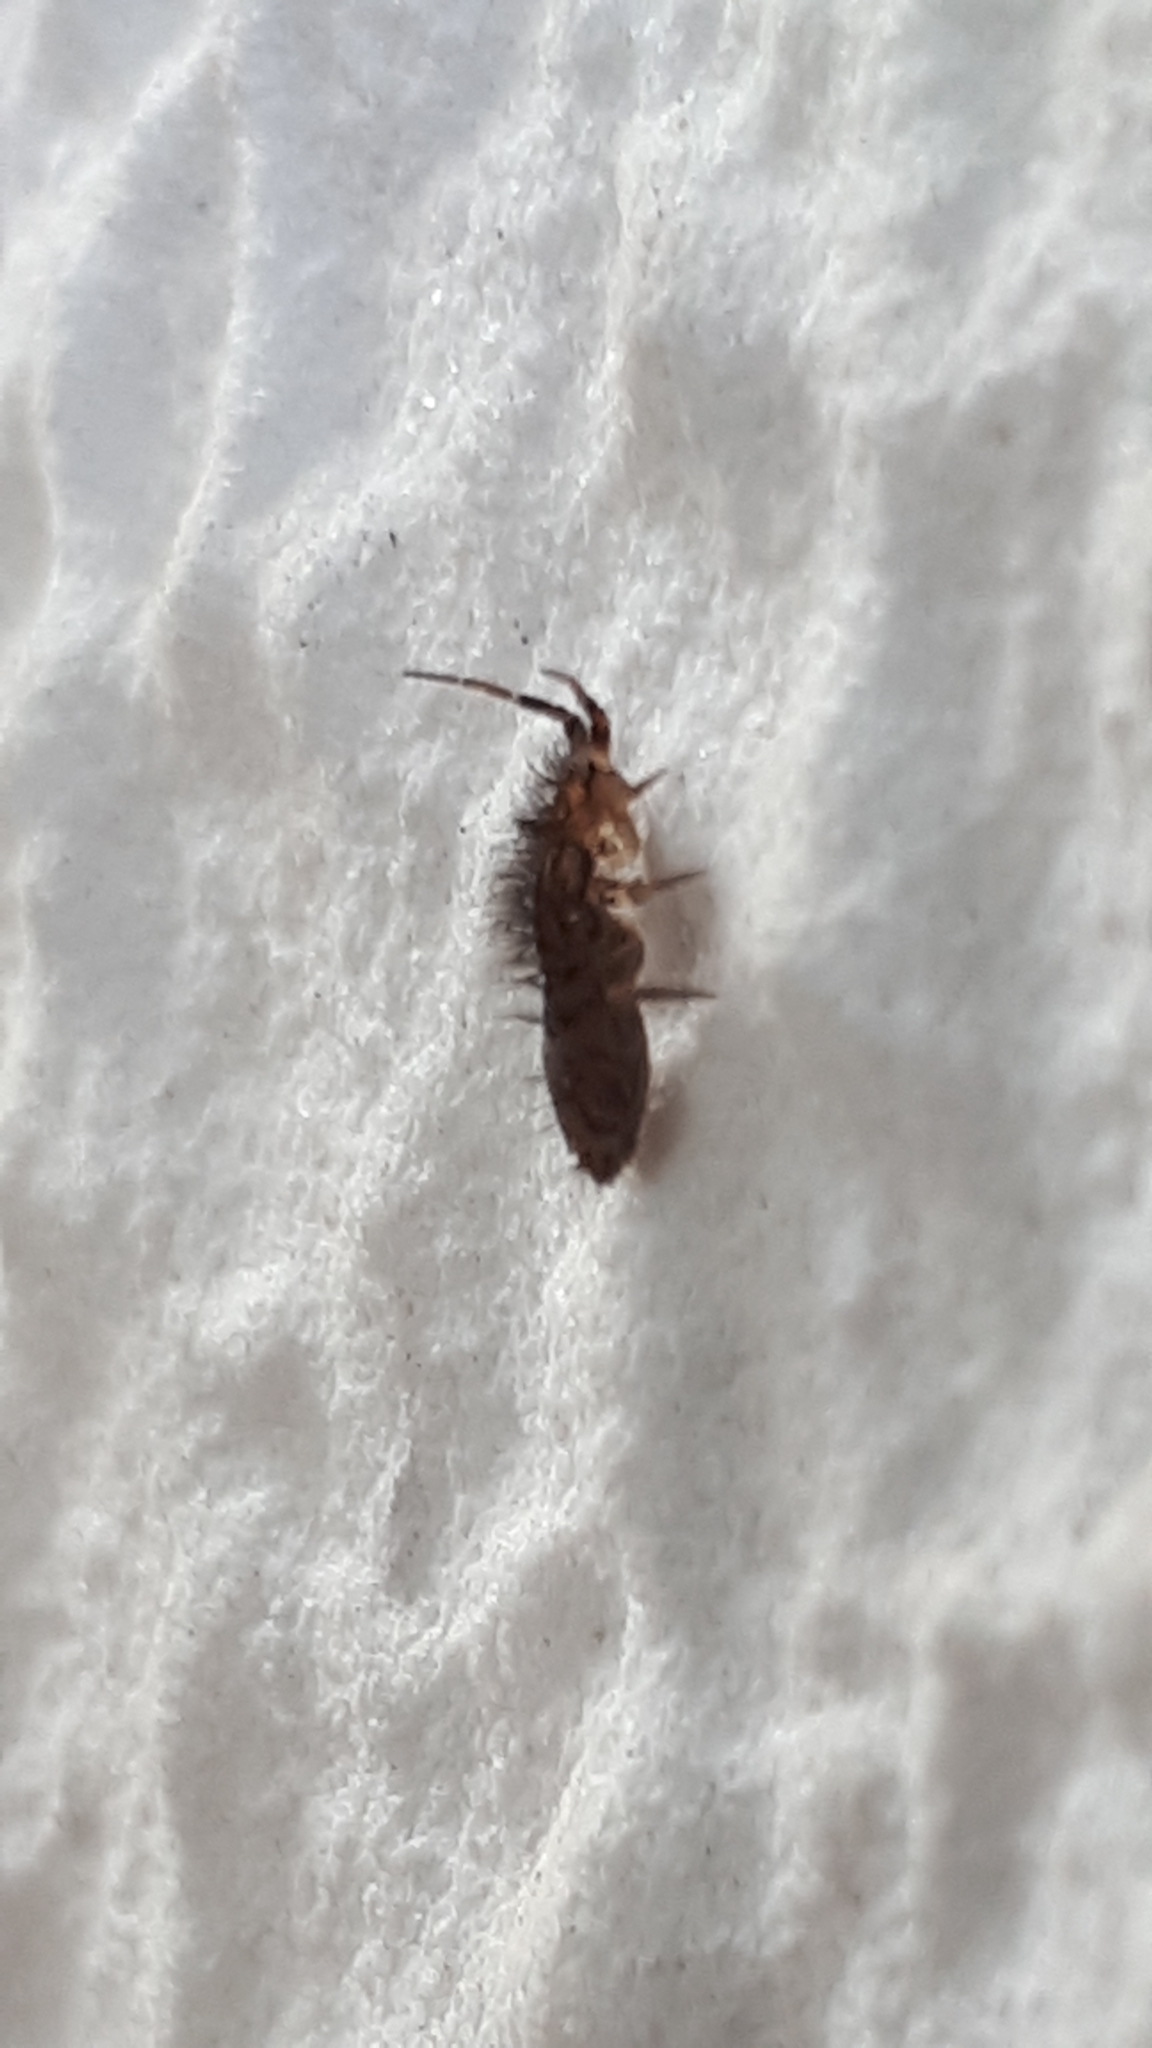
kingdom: Animalia
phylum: Arthropoda
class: Collembola
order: Entomobryomorpha
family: Orchesellidae
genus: Orchesella
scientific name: Orchesella villosa
